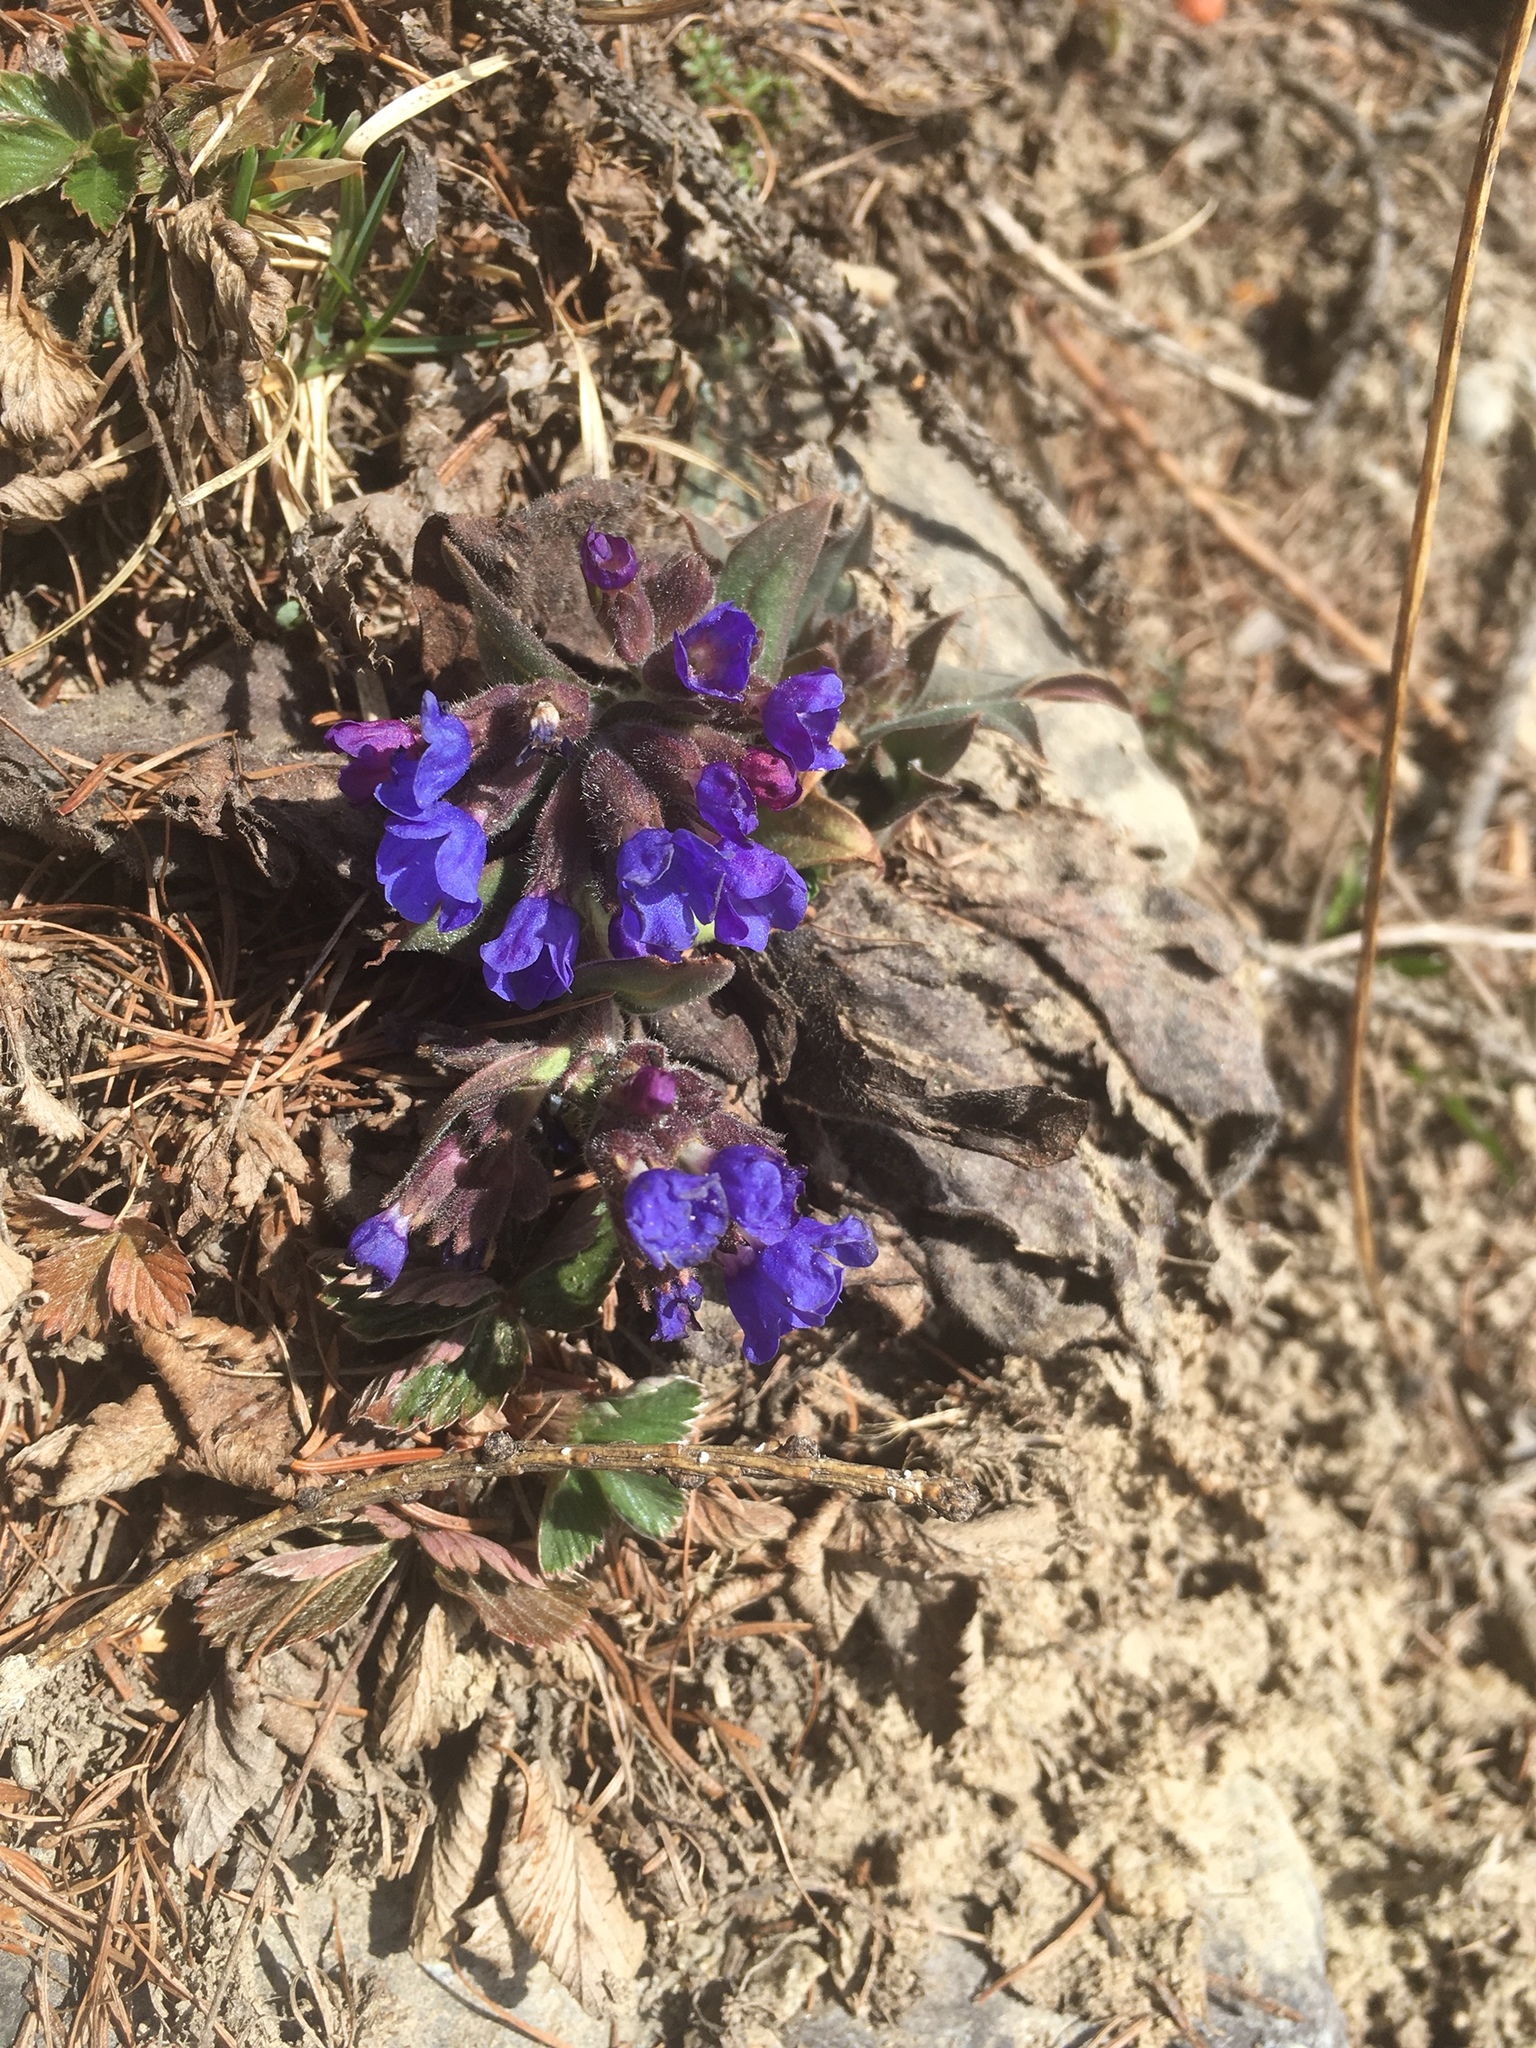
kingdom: Plantae
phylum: Tracheophyta
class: Magnoliopsida
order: Boraginales
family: Boraginaceae
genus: Pulmonaria
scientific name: Pulmonaria australis
